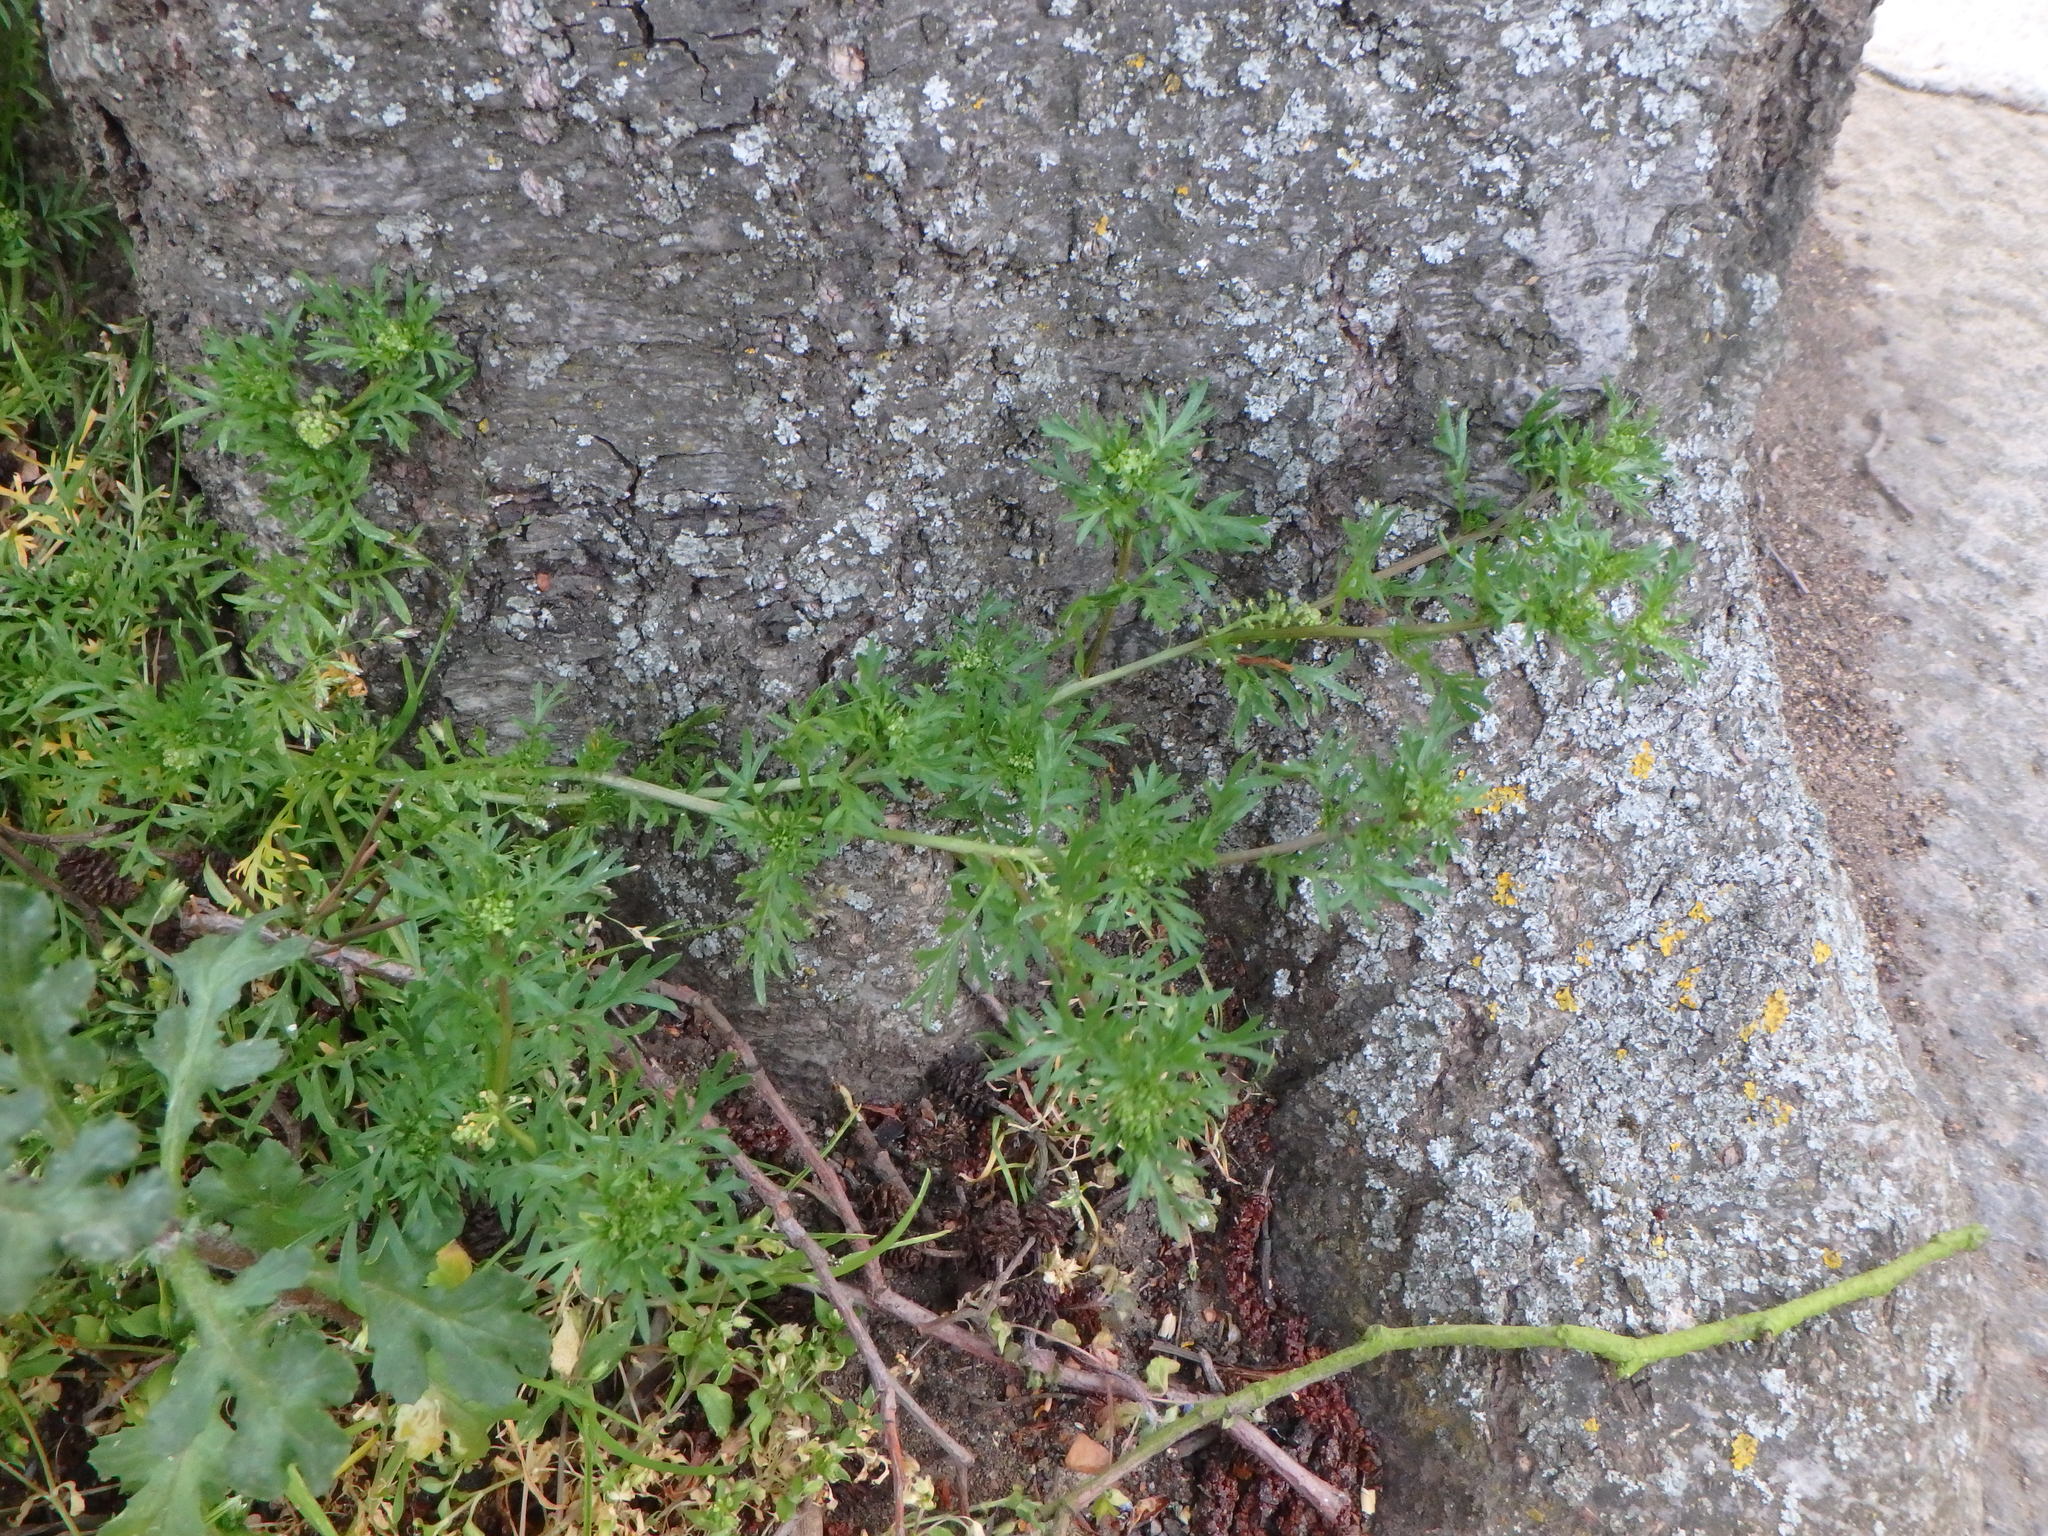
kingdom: Plantae
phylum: Tracheophyta
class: Magnoliopsida
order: Brassicales
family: Brassicaceae
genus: Lepidium
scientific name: Lepidium didymum
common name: Lesser swinecress
